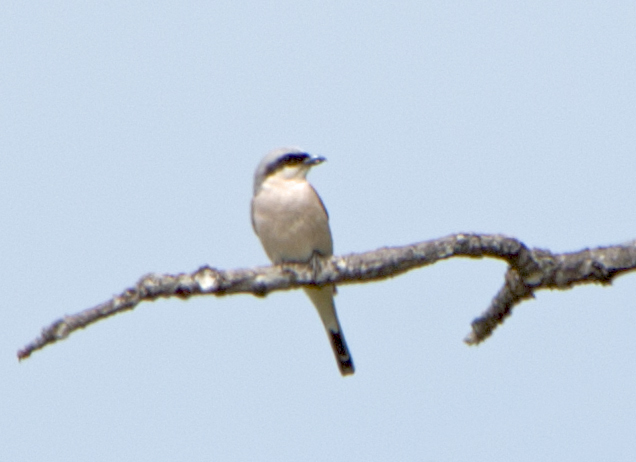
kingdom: Animalia
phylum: Chordata
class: Aves
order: Passeriformes
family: Laniidae
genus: Lanius
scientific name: Lanius collurio
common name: Red-backed shrike
